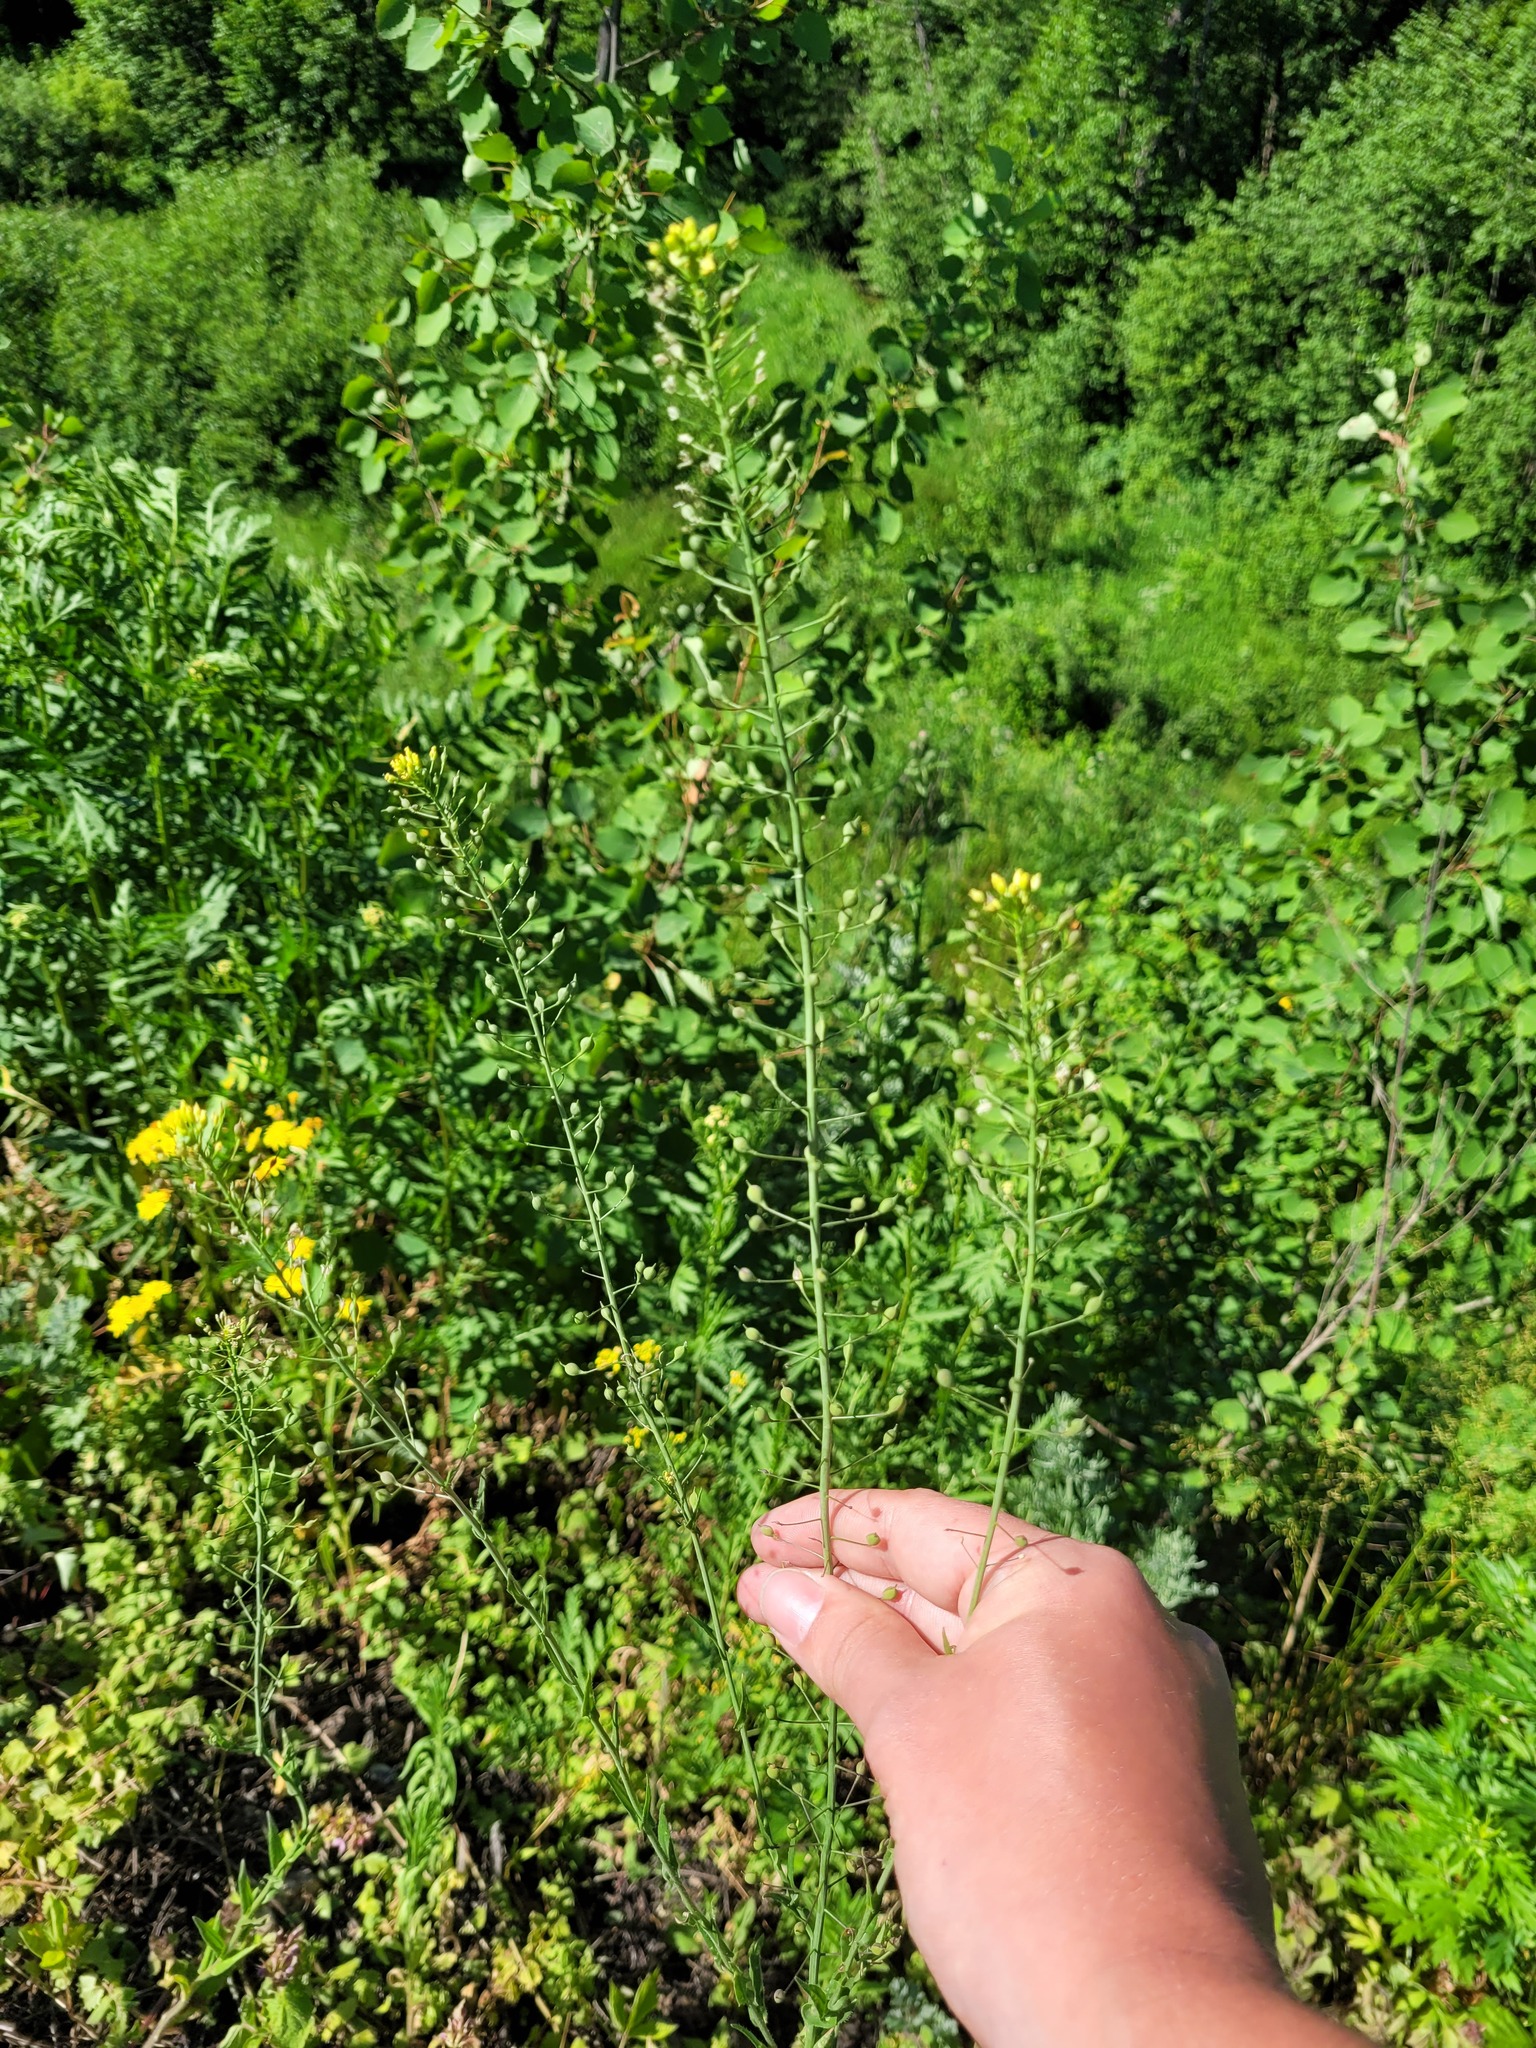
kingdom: Plantae
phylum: Tracheophyta
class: Magnoliopsida
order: Brassicales
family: Brassicaceae
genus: Camelina
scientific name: Camelina microcarpa
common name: Lesser gold-of-pleasure
